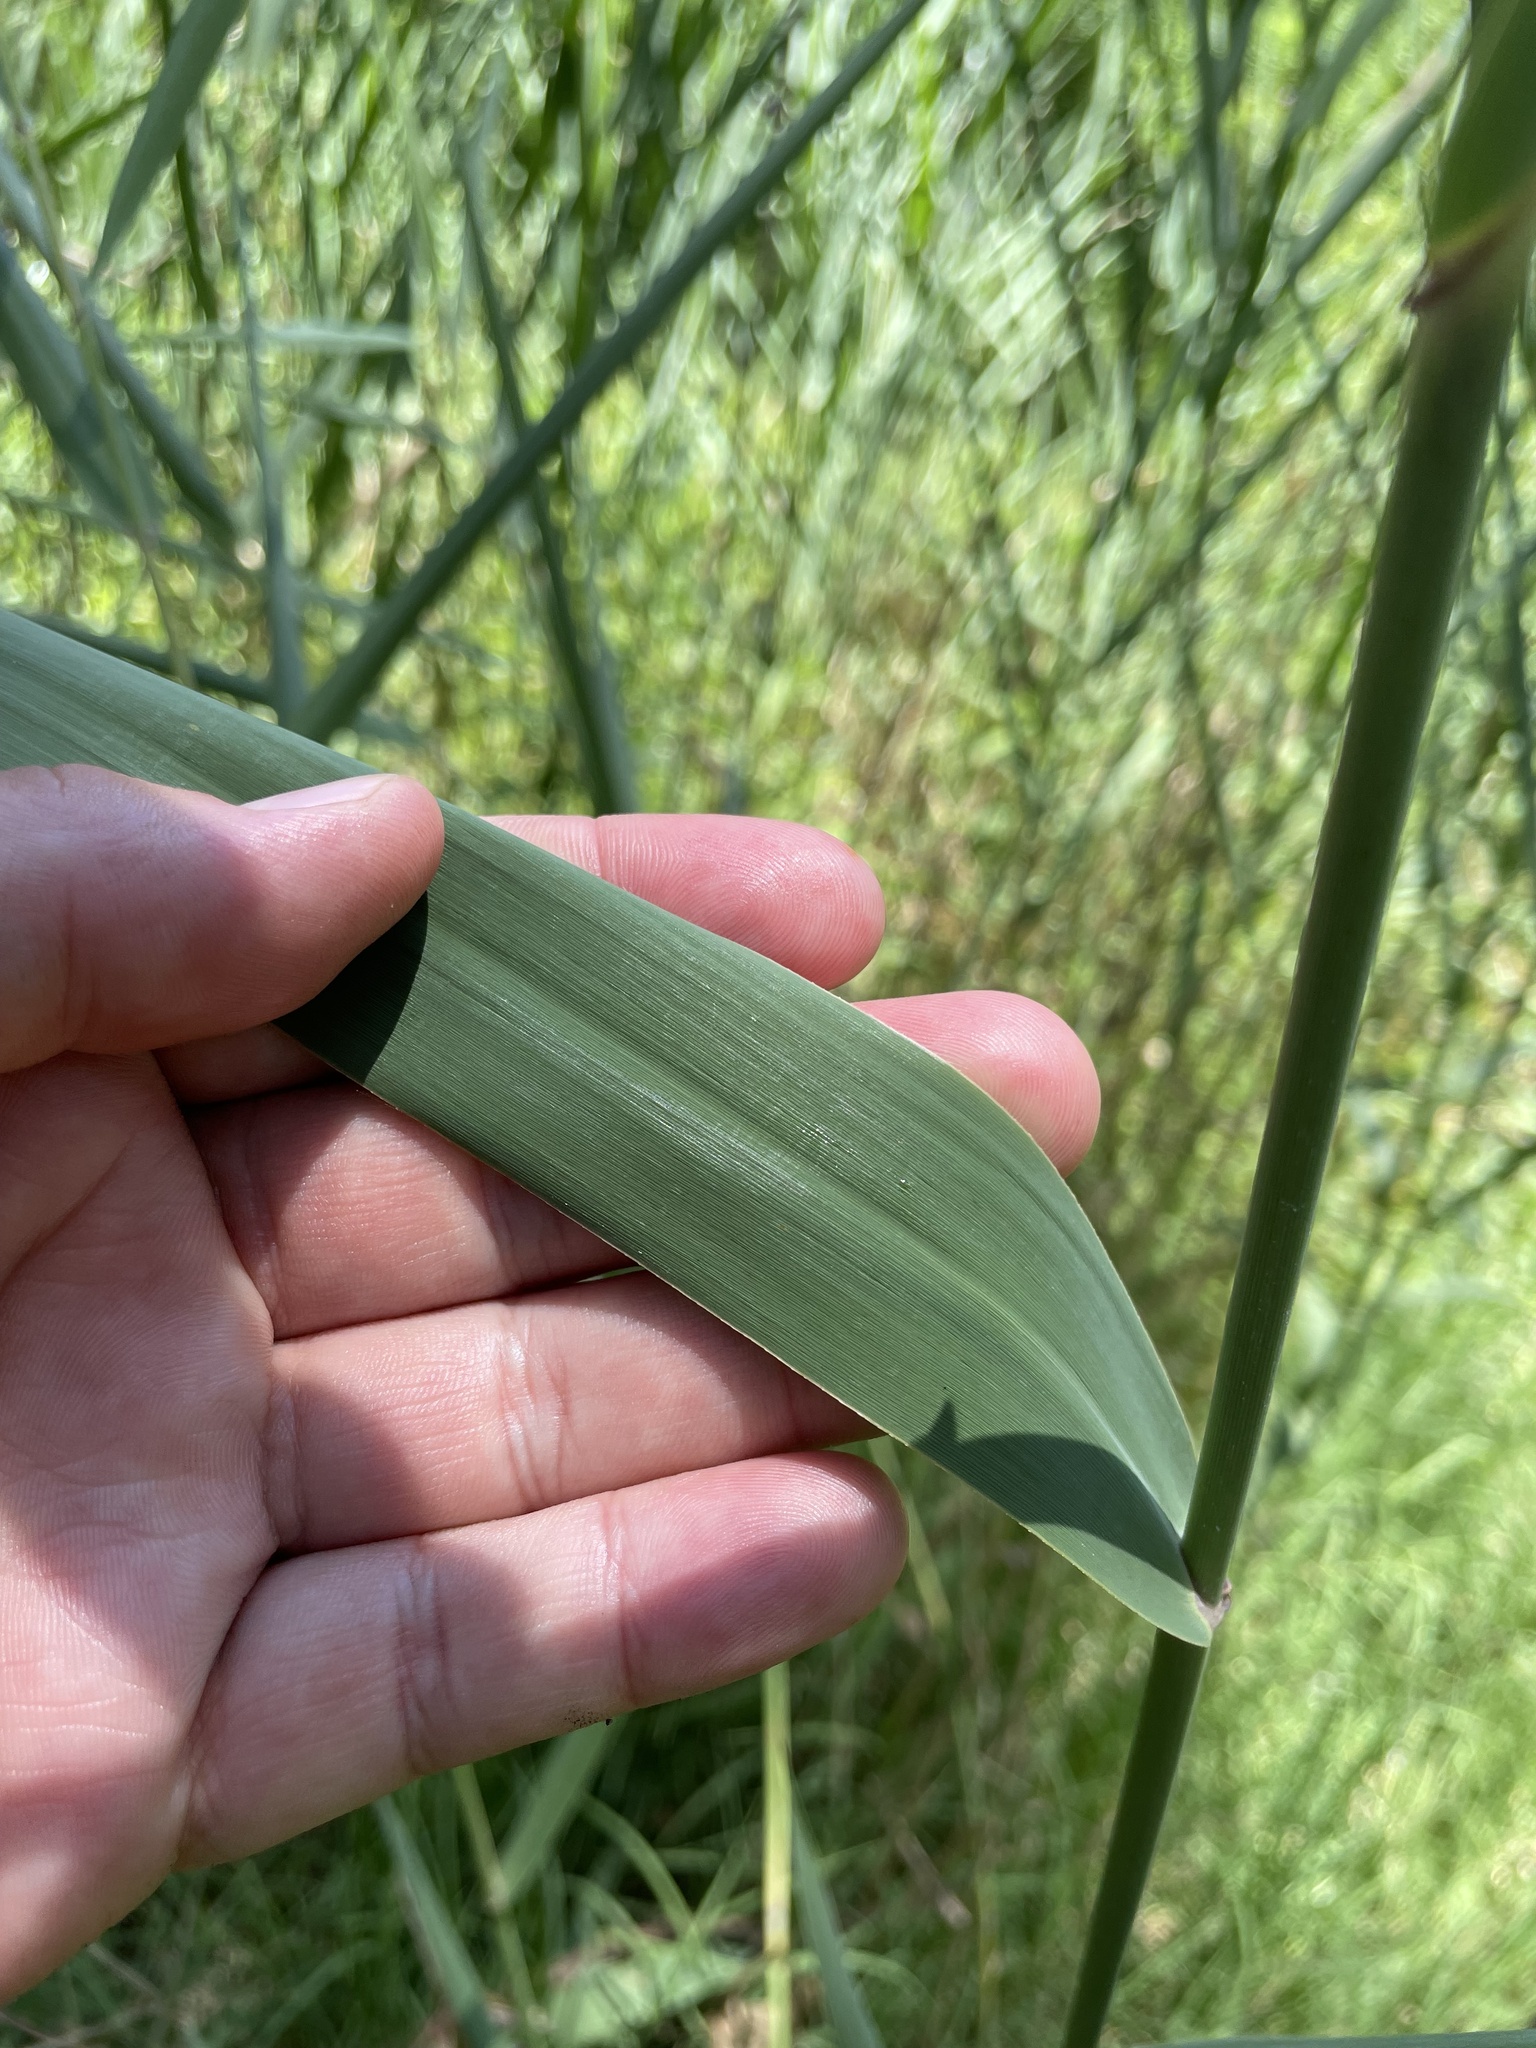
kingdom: Plantae
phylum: Tracheophyta
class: Liliopsida
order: Poales
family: Poaceae
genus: Phragmites
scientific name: Phragmites australis
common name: Common reed
